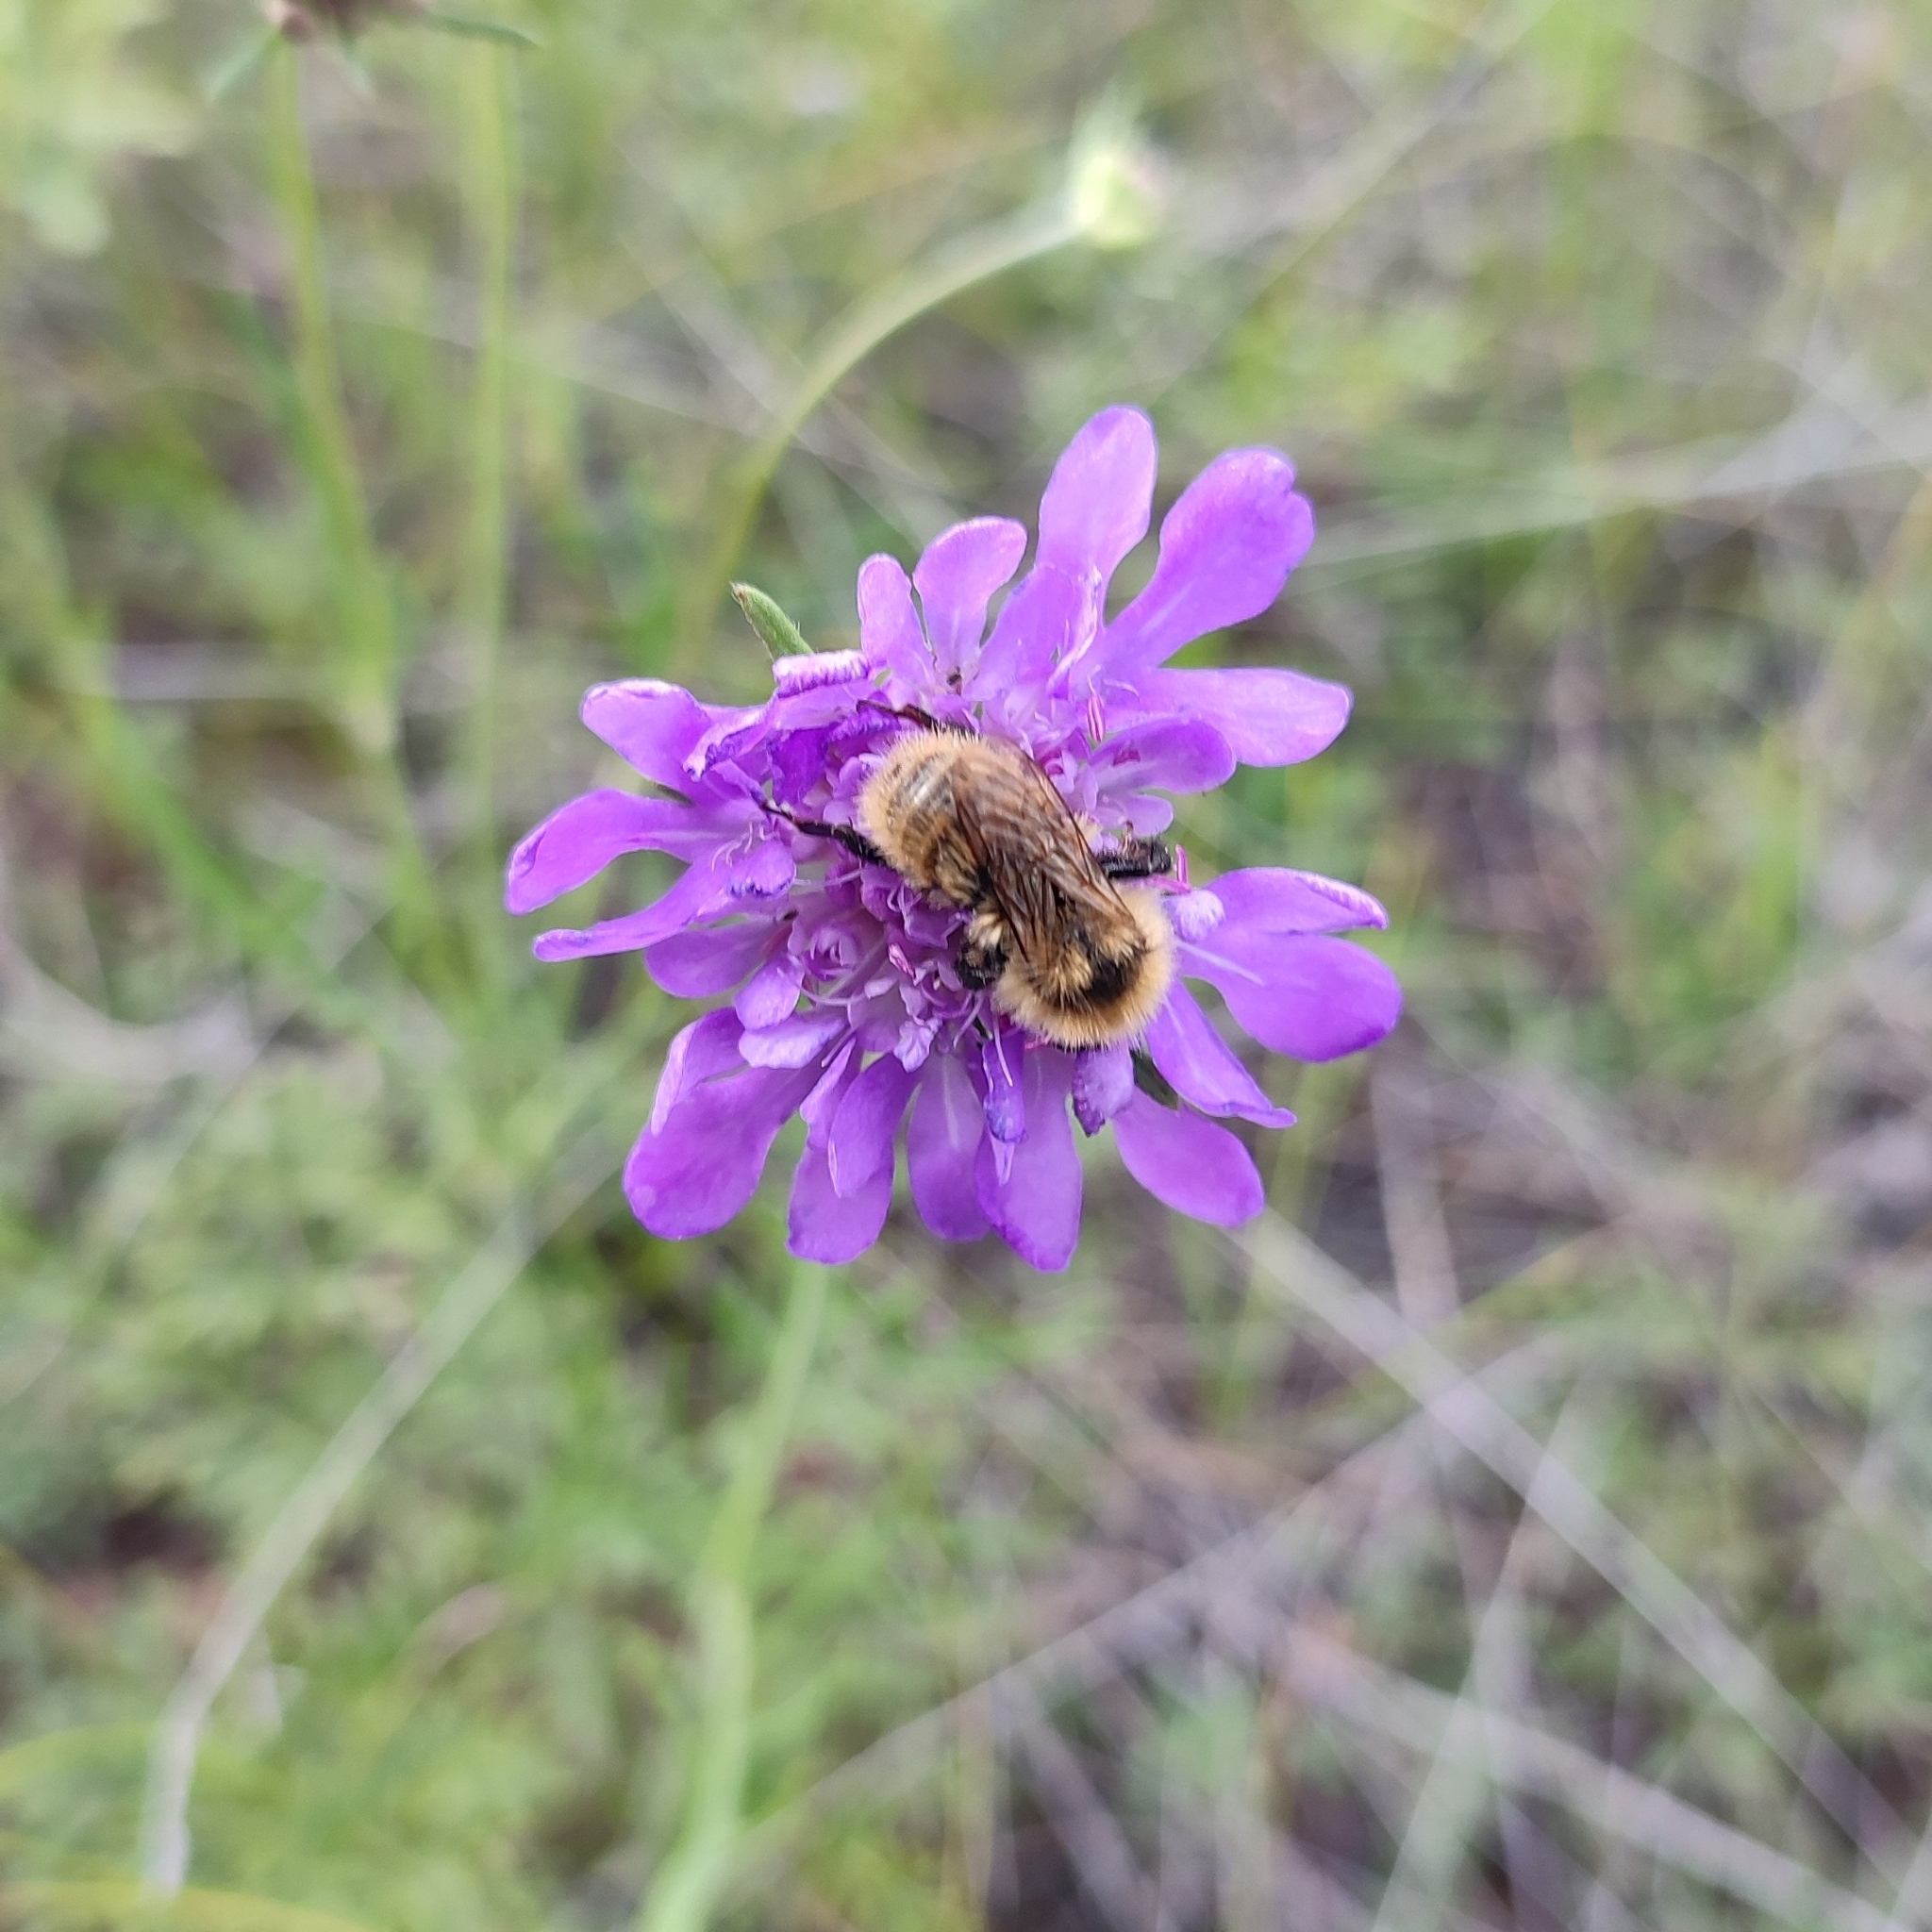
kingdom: Animalia
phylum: Arthropoda
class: Insecta
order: Hymenoptera
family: Apidae
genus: Bombus
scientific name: Bombus distinguendus
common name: Great yellow humble-bee
